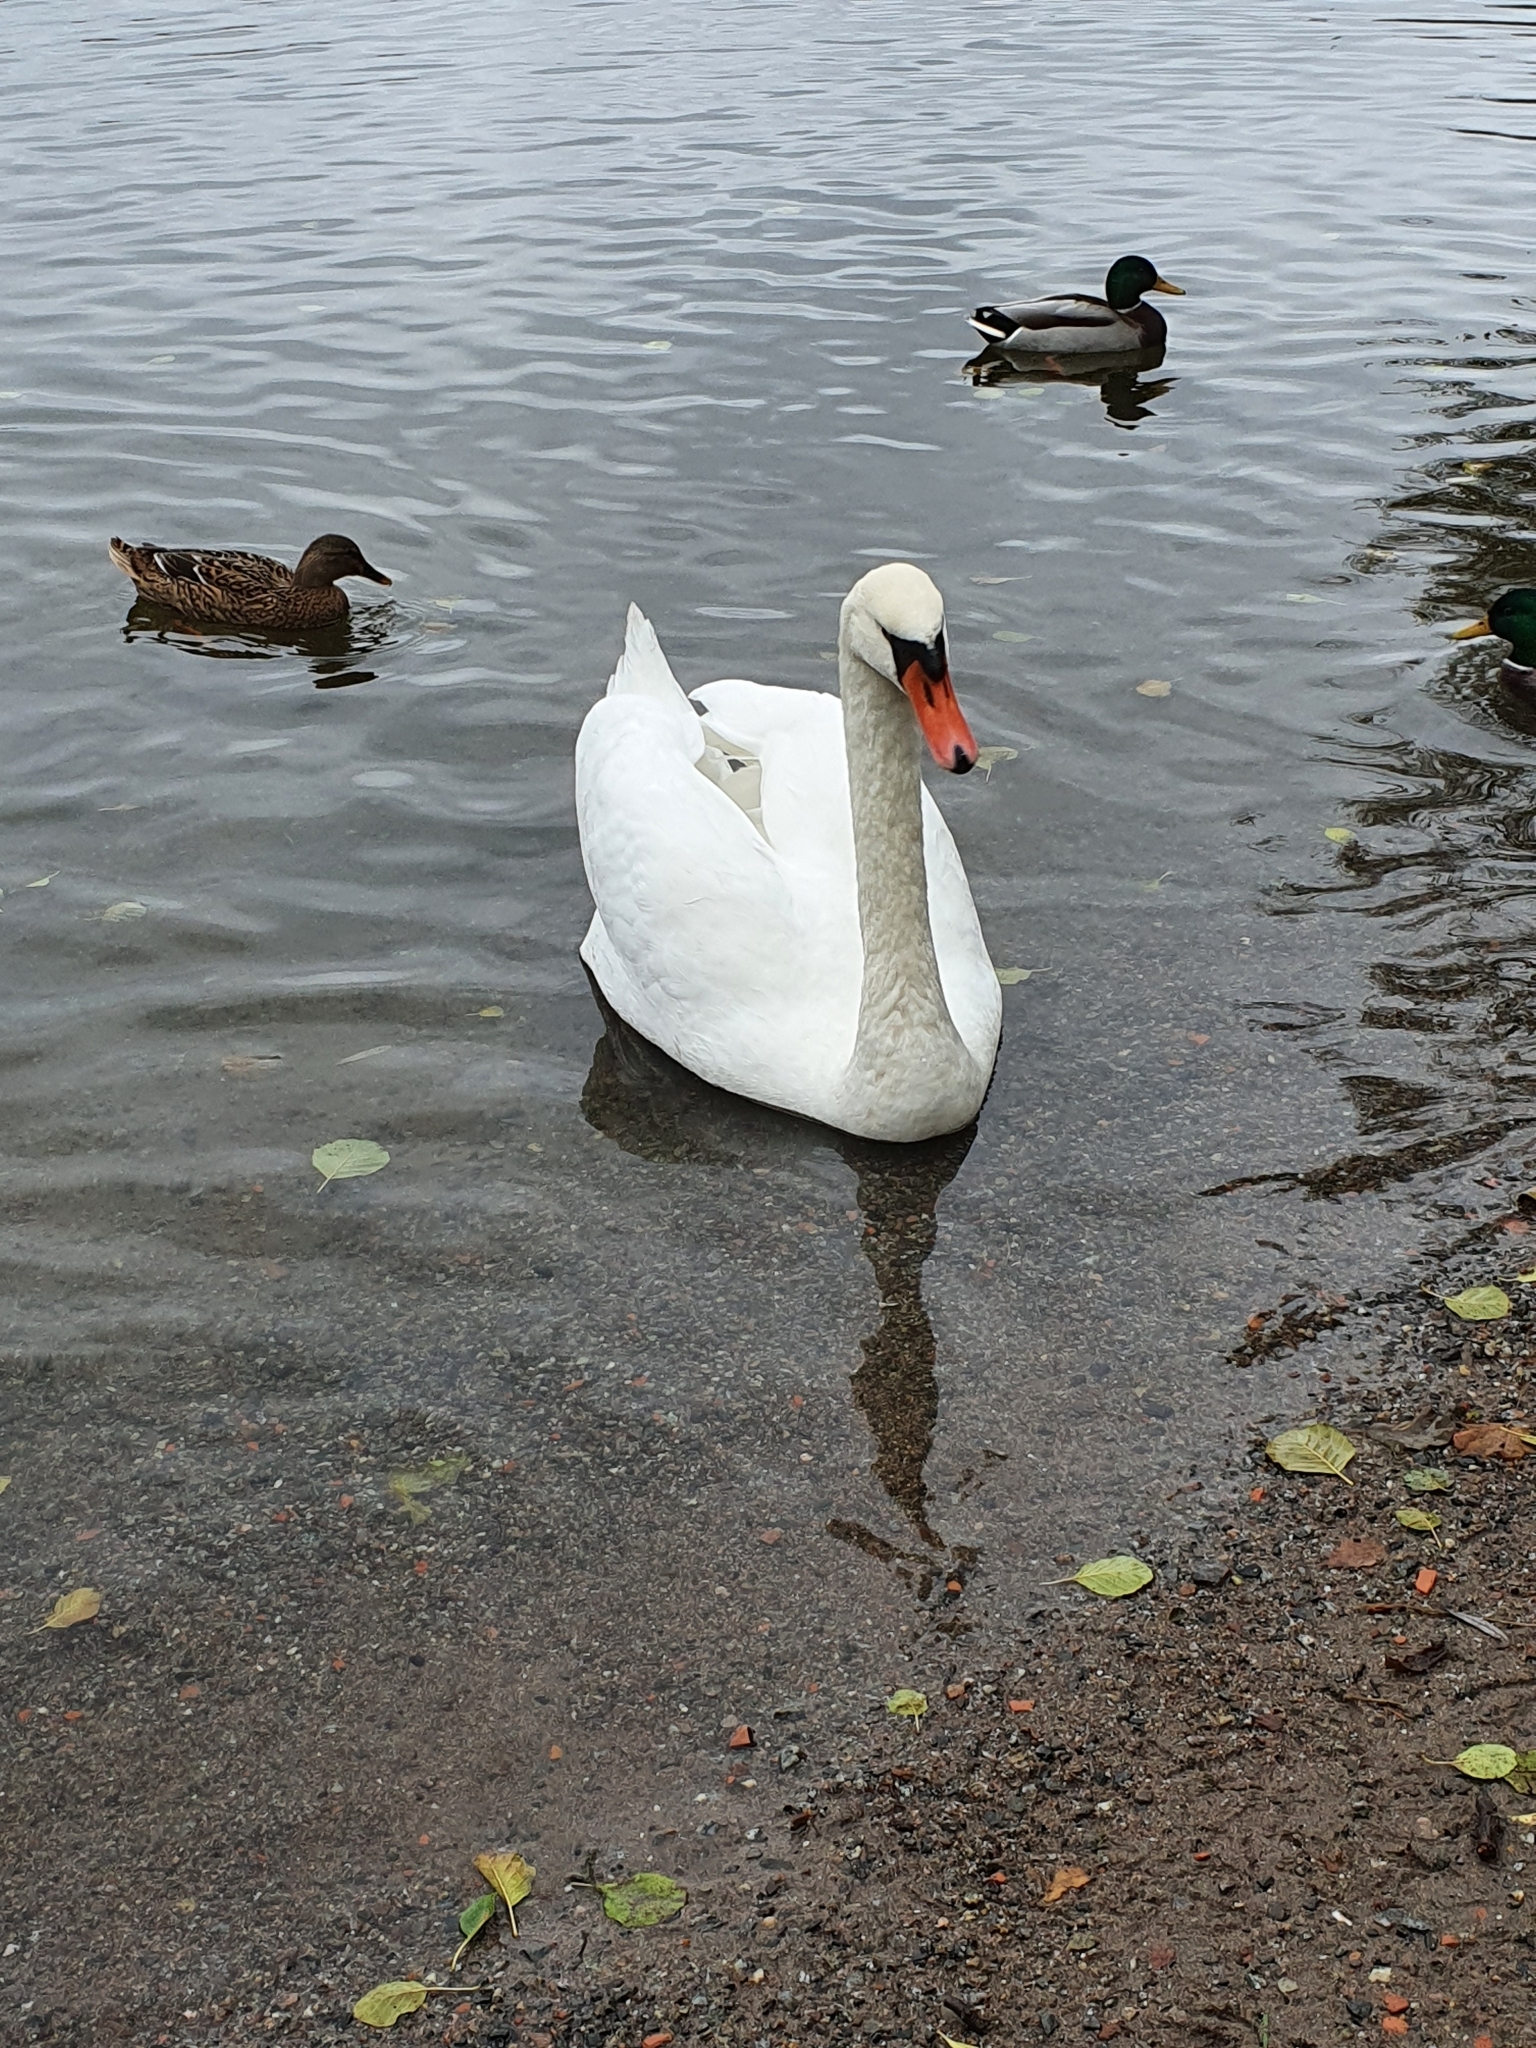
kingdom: Animalia
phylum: Chordata
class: Aves
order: Anseriformes
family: Anatidae
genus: Cygnus
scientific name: Cygnus olor
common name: Mute swan
